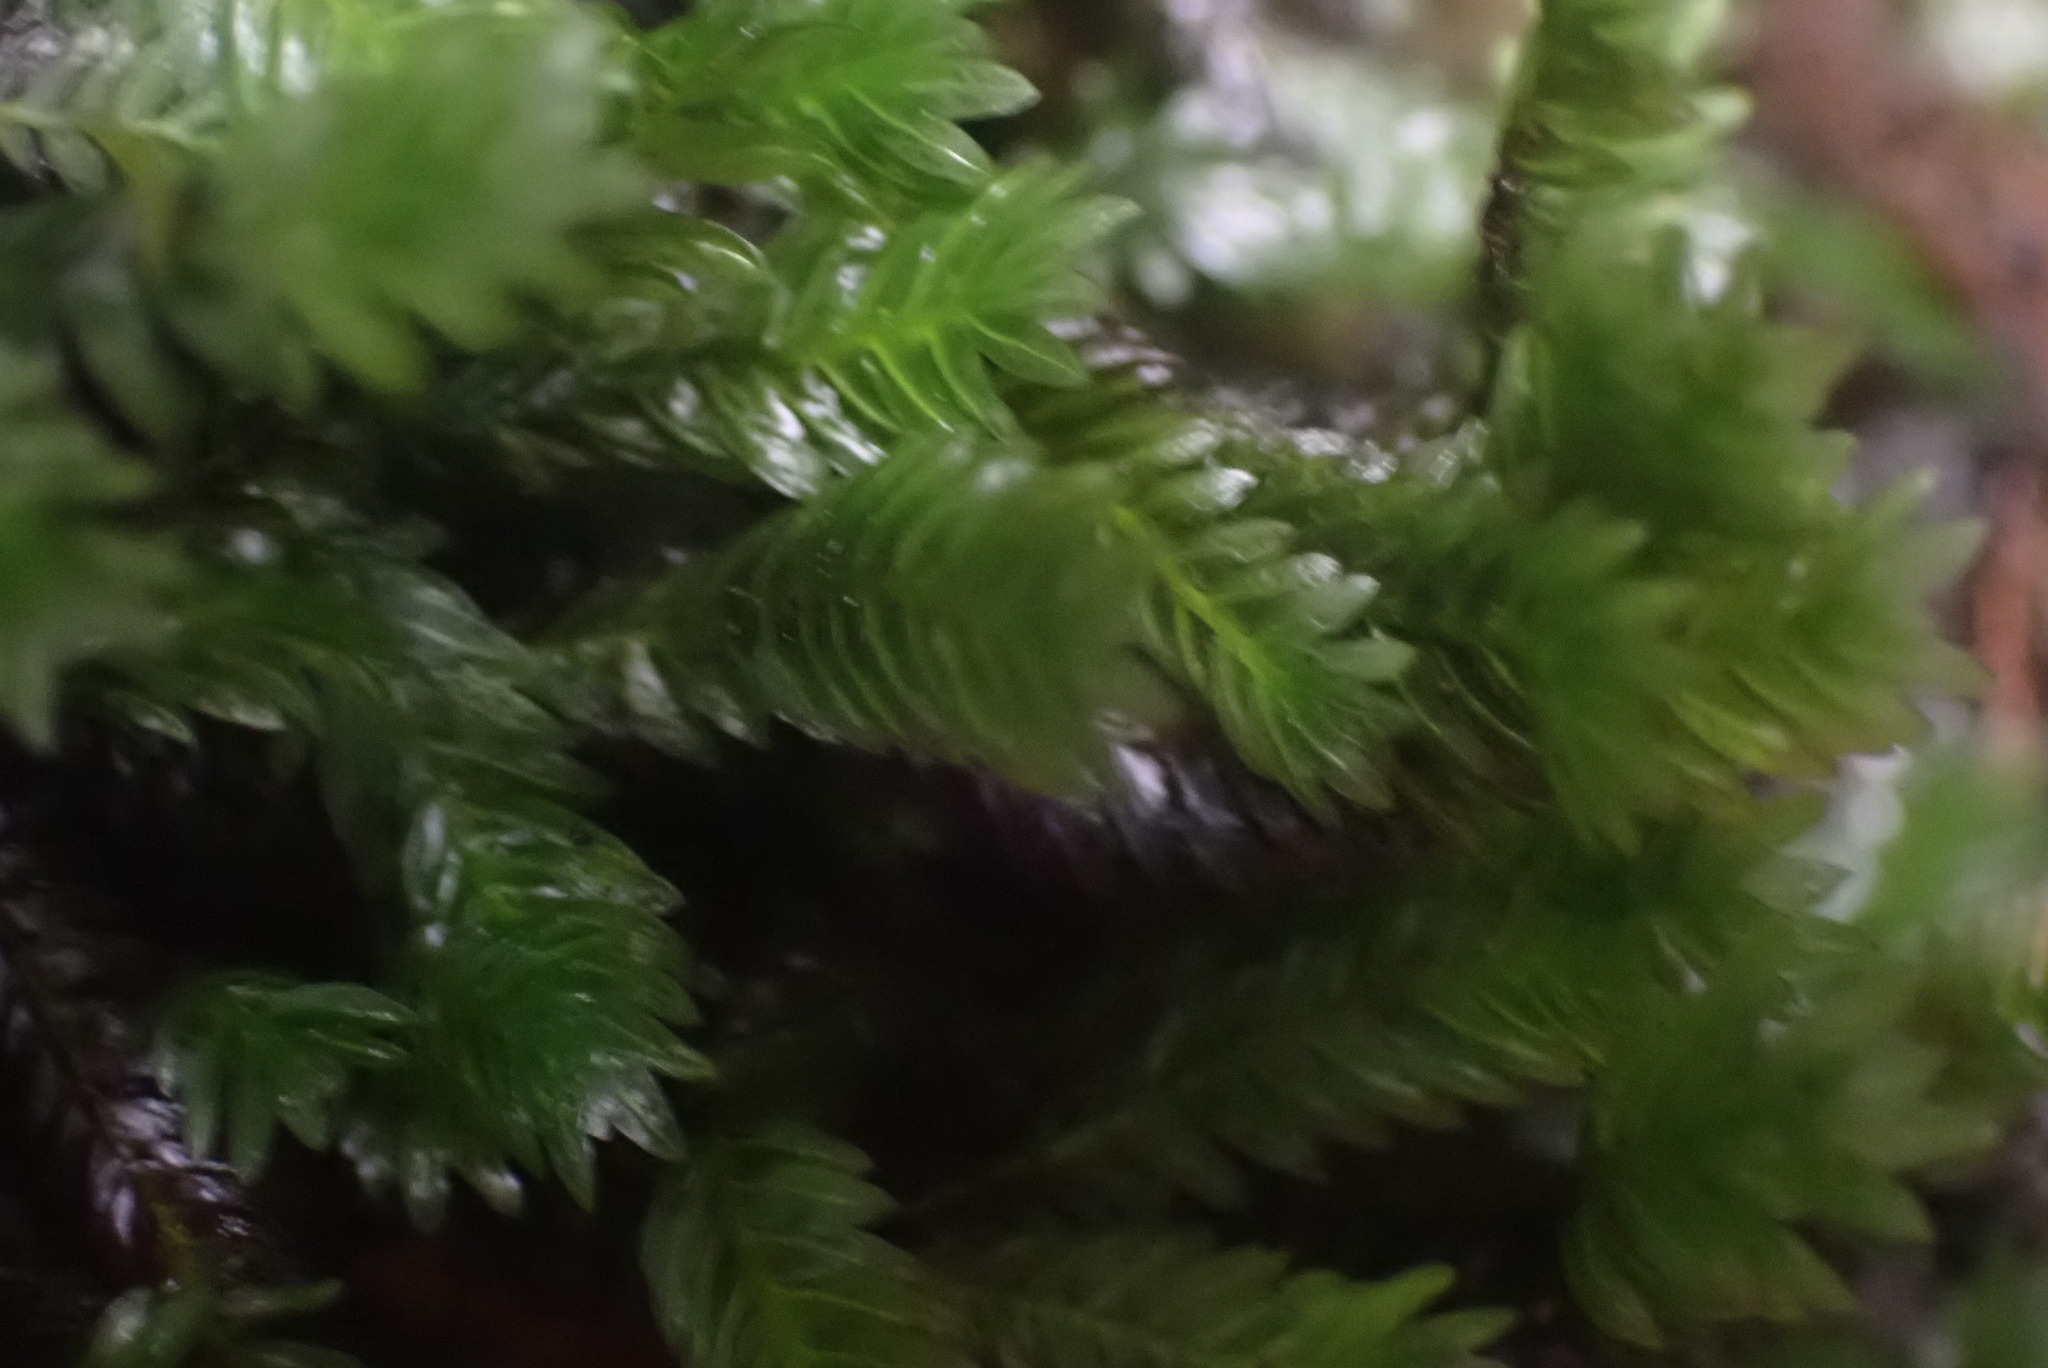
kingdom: Plantae
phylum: Bryophyta
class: Bryopsida
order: Dicranales
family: Fissidentaceae
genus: Fissidens
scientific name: Fissidens adianthoides
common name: Maidenhair pocket moss
